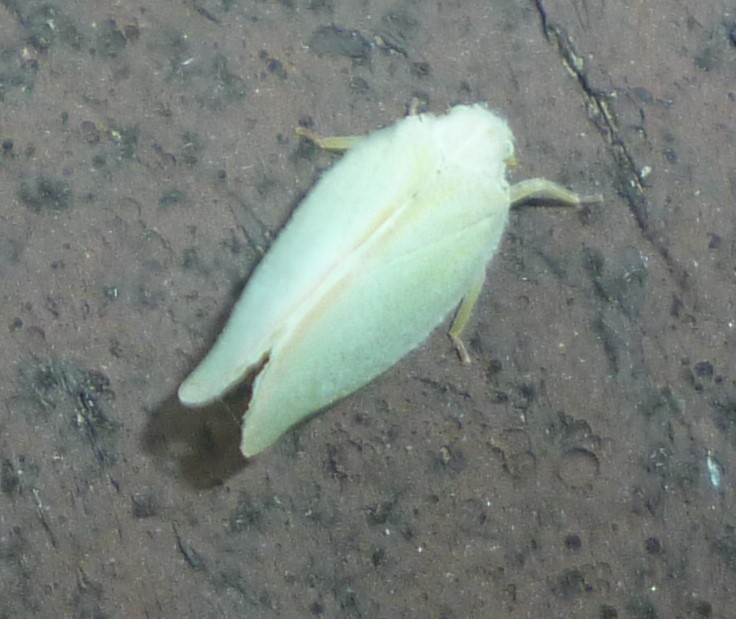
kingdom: Animalia
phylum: Arthropoda
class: Insecta
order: Hemiptera
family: Flatidae
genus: Ormenoides
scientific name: Ormenoides venusta
